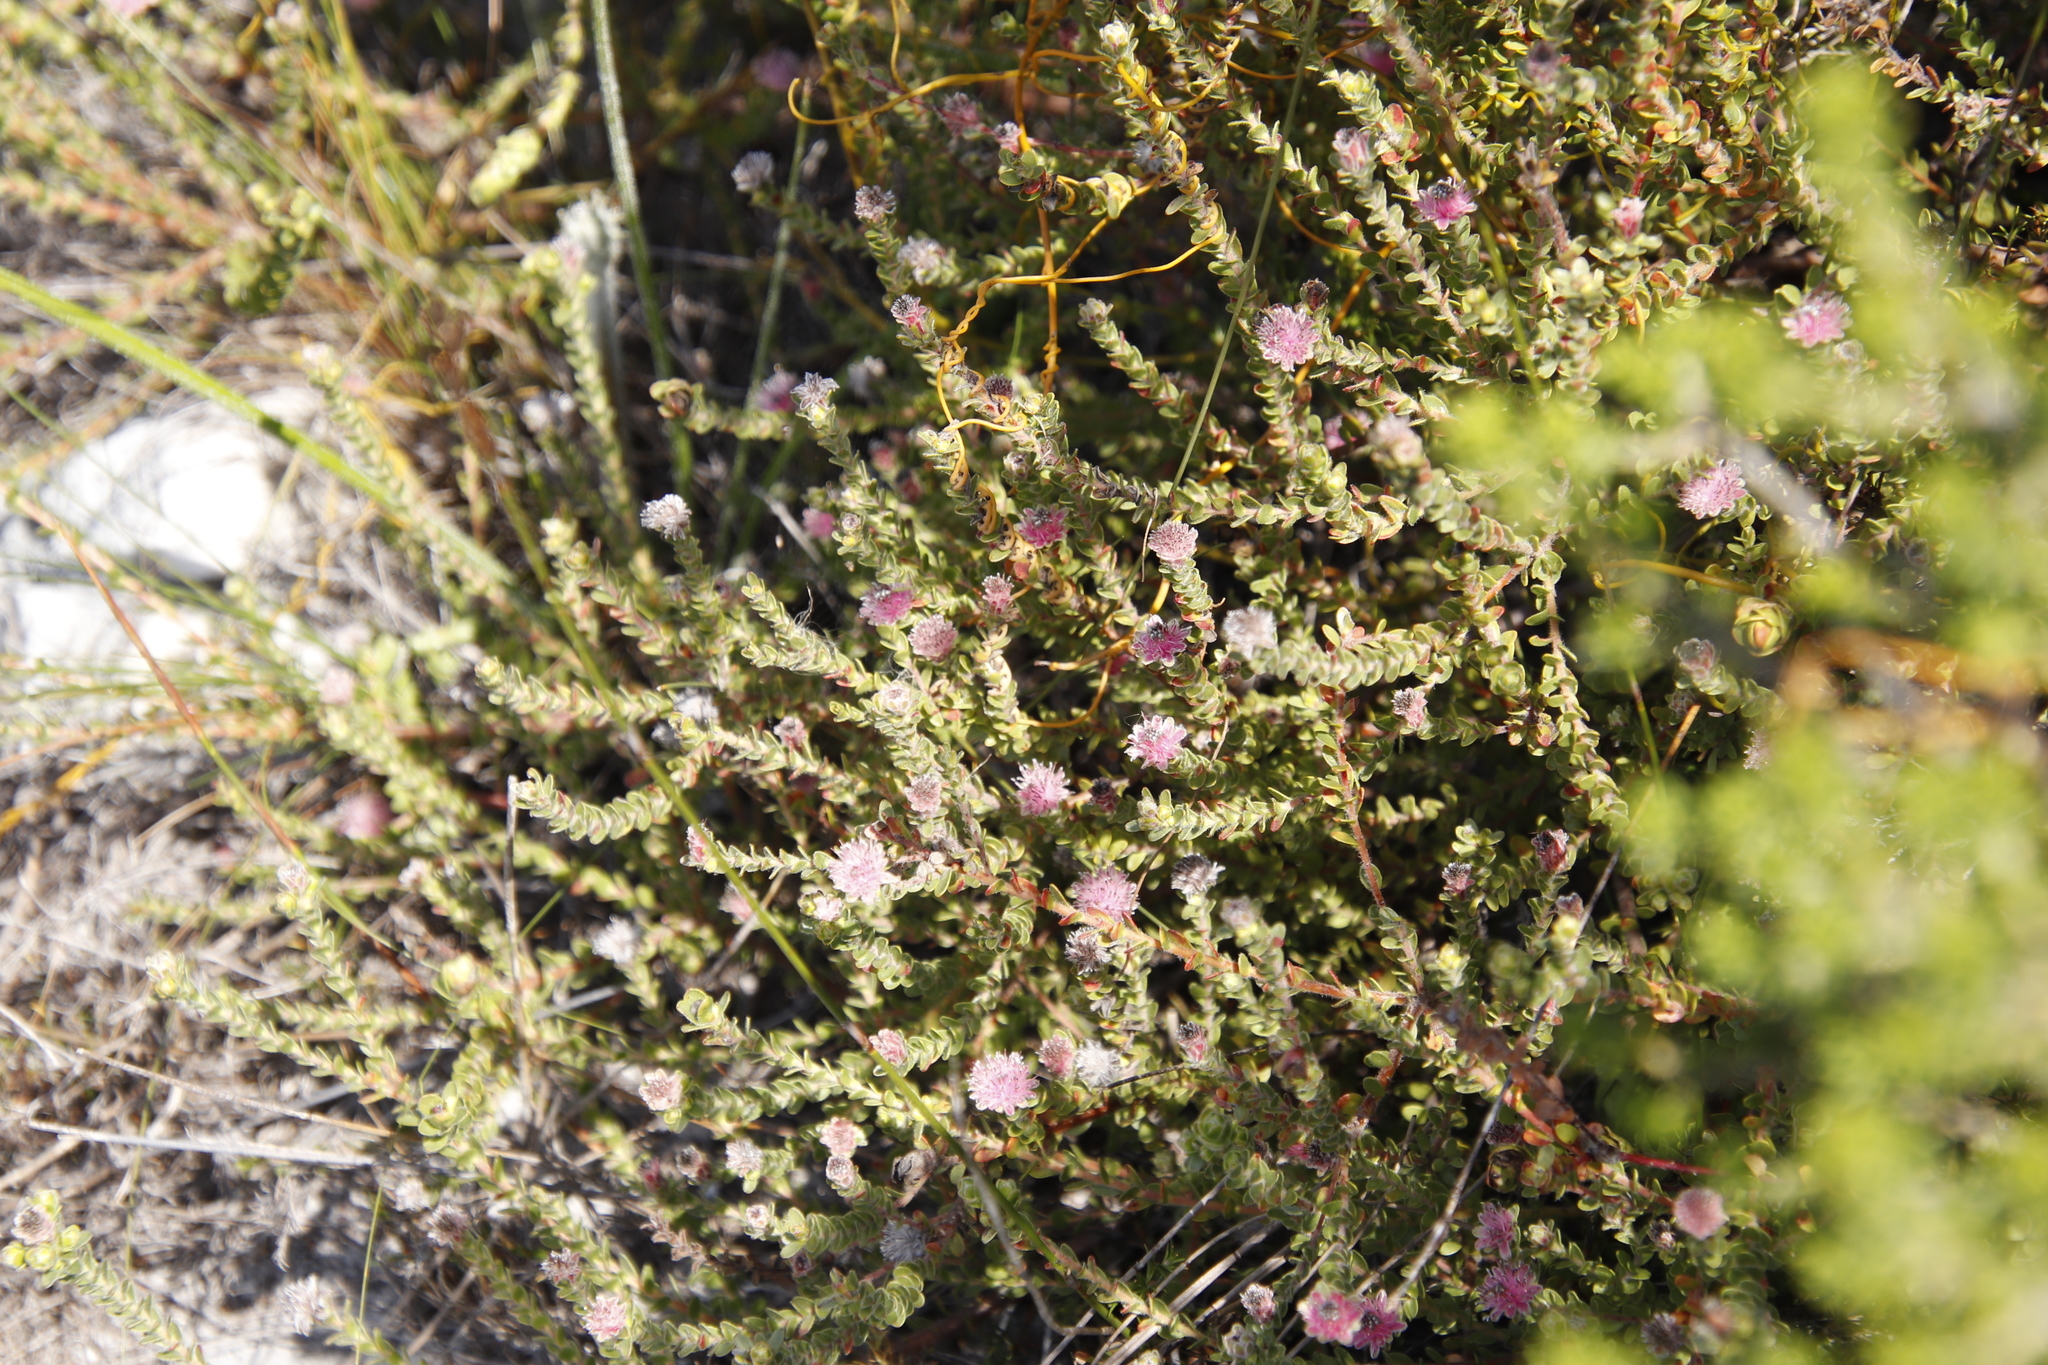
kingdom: Plantae
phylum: Tracheophyta
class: Magnoliopsida
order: Proteales
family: Proteaceae
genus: Diastella
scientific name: Diastella divaricata
